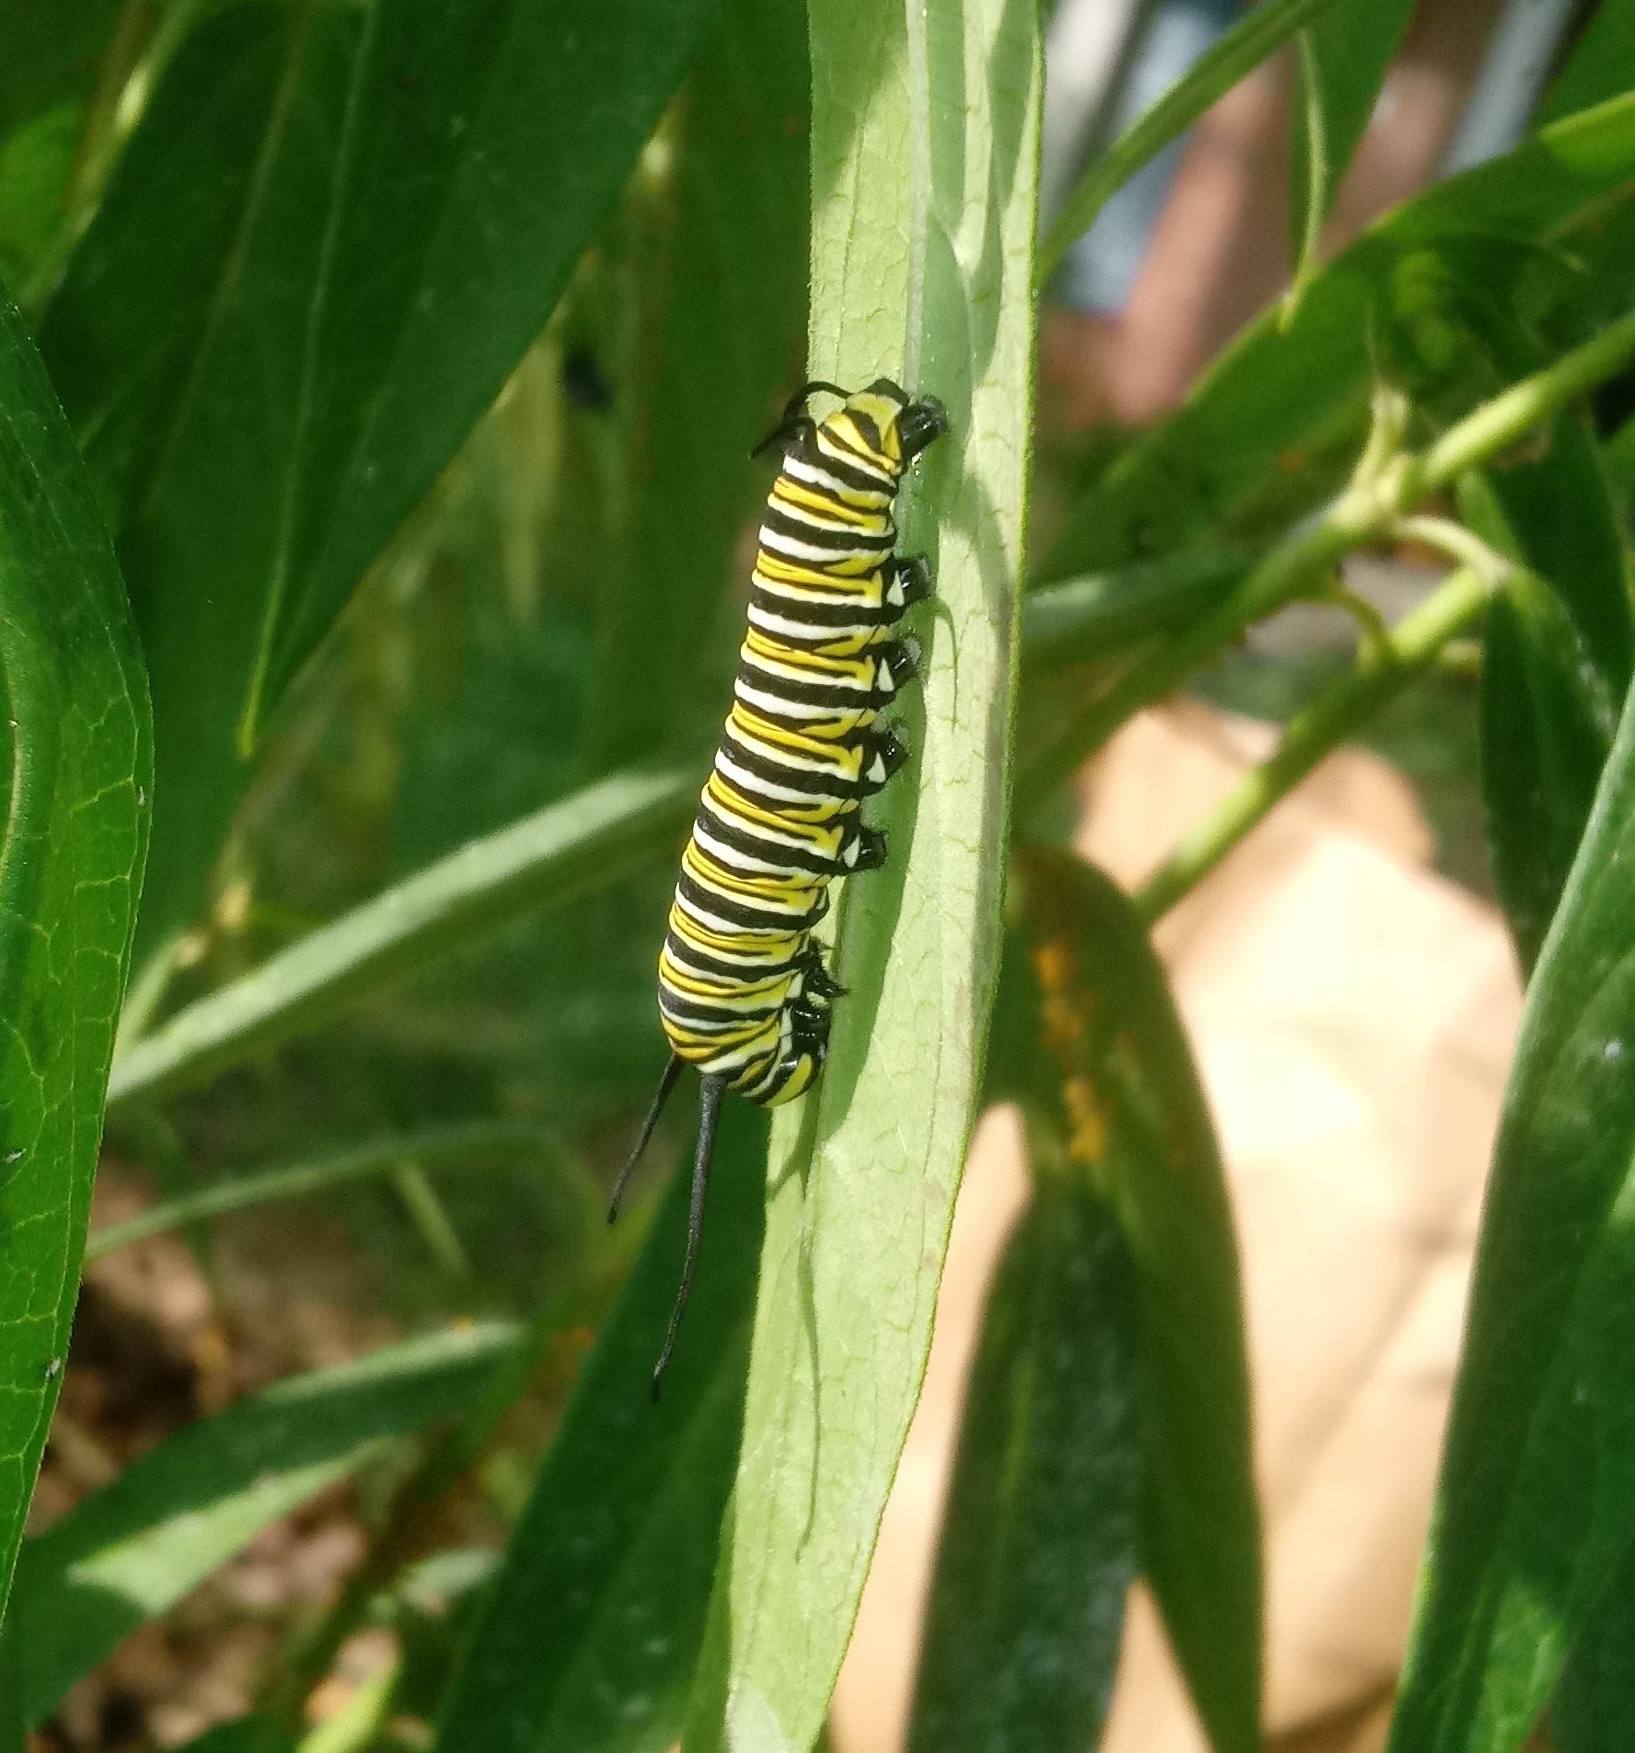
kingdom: Animalia
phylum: Arthropoda
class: Insecta
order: Lepidoptera
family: Nymphalidae
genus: Danaus
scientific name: Danaus plexippus
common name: Monarch
